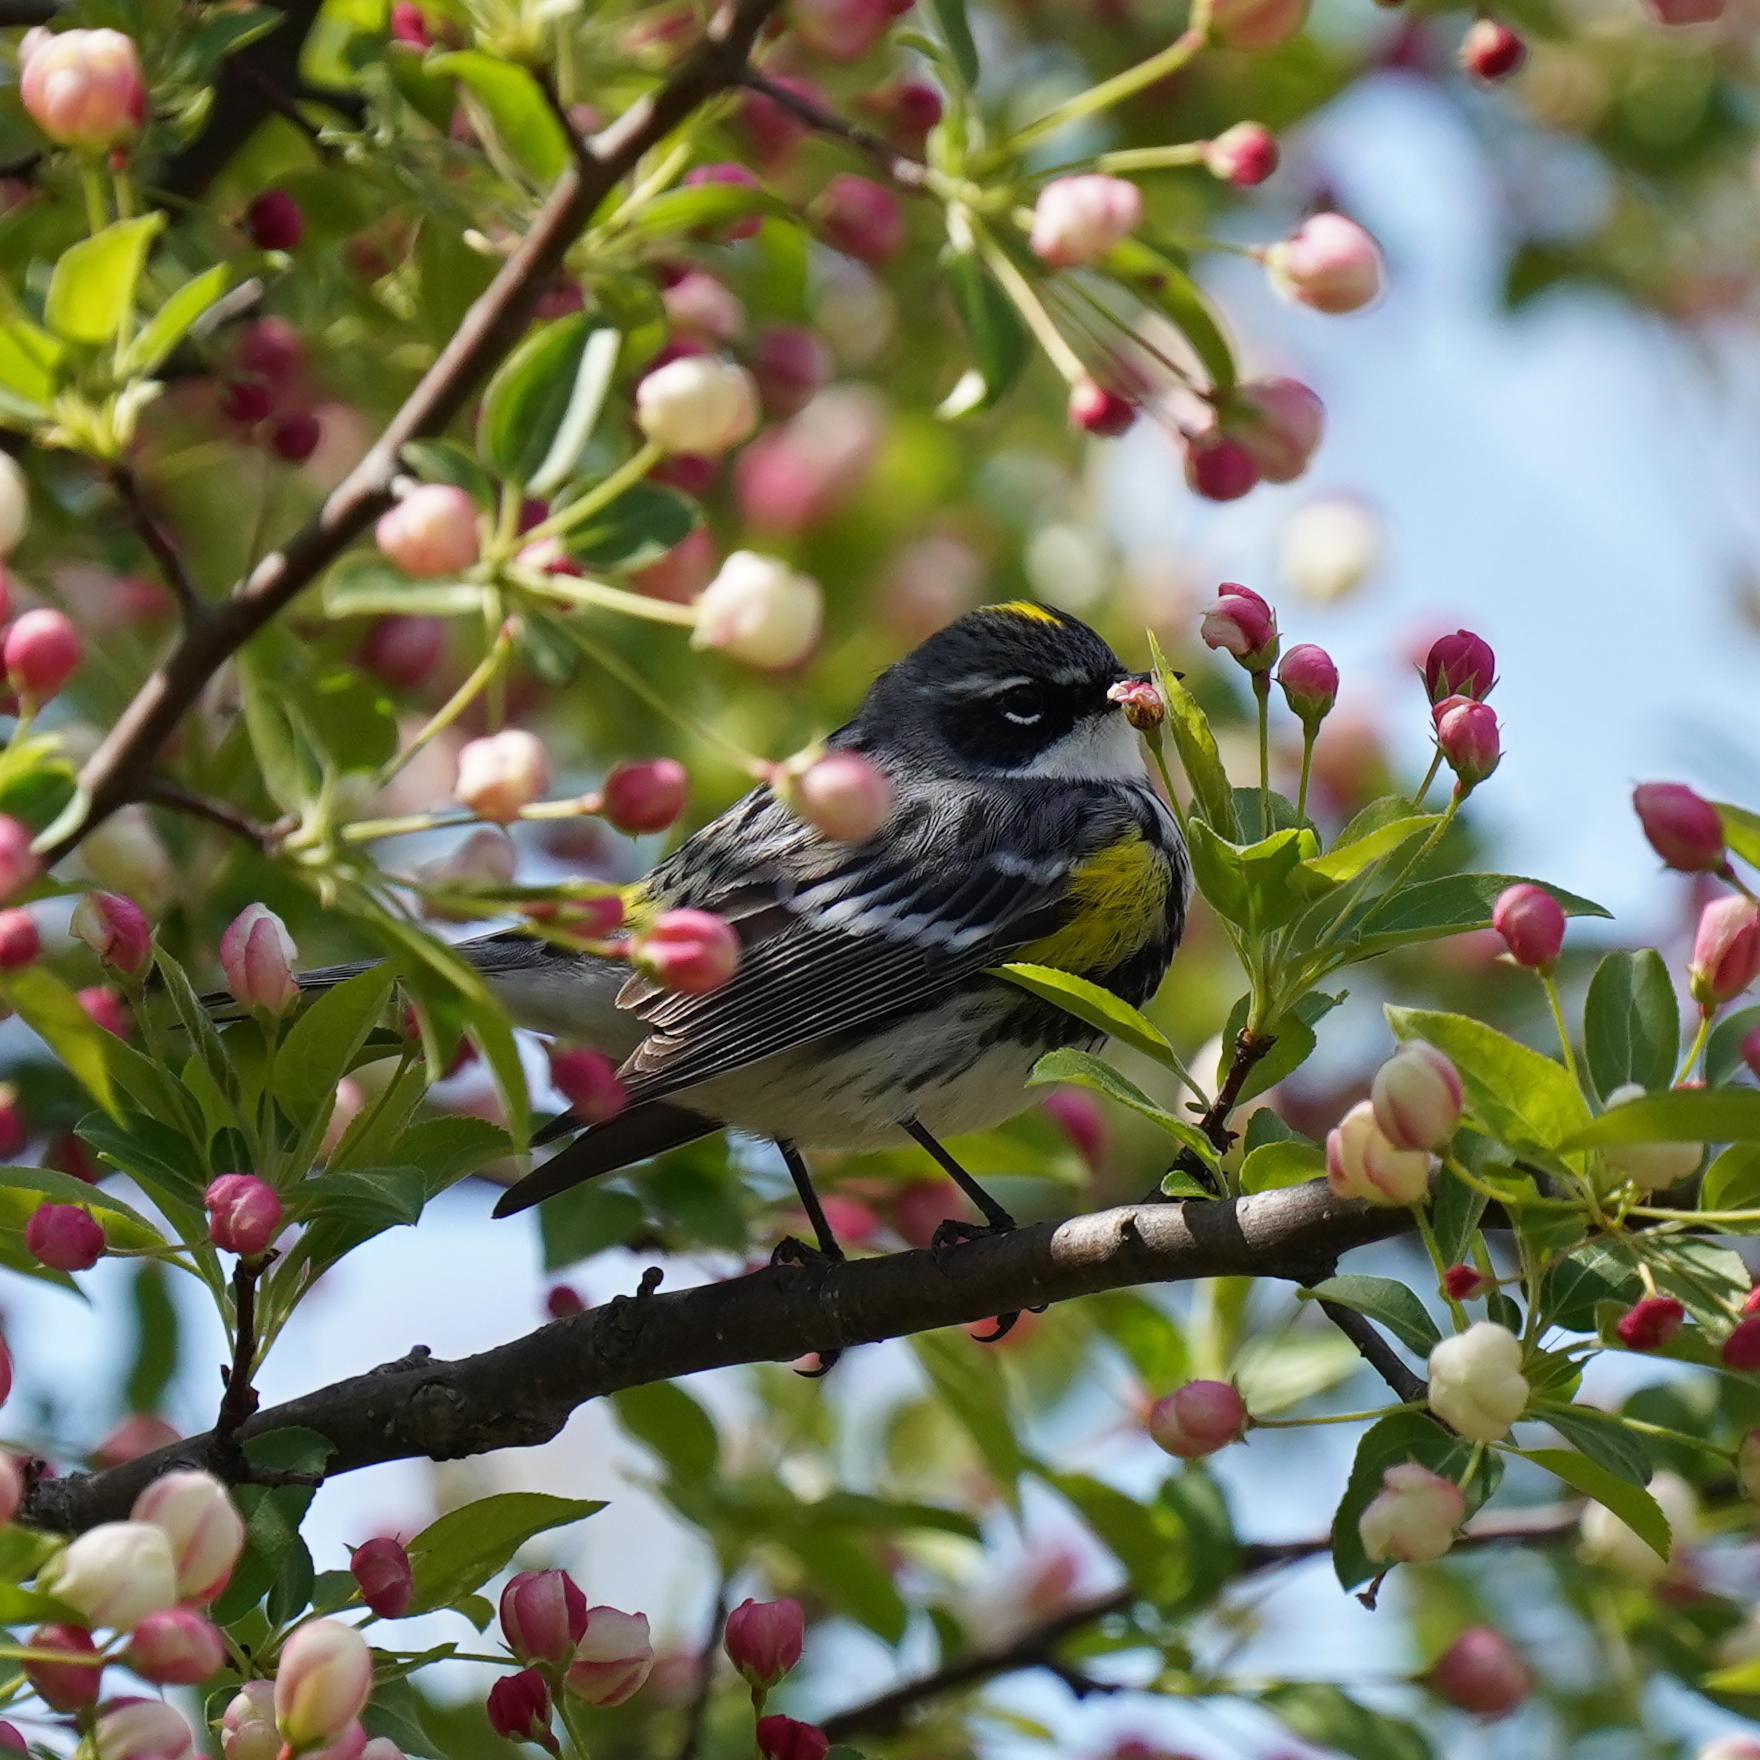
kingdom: Animalia
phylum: Chordata
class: Aves
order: Passeriformes
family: Parulidae
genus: Setophaga
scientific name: Setophaga coronata
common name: Myrtle warbler
